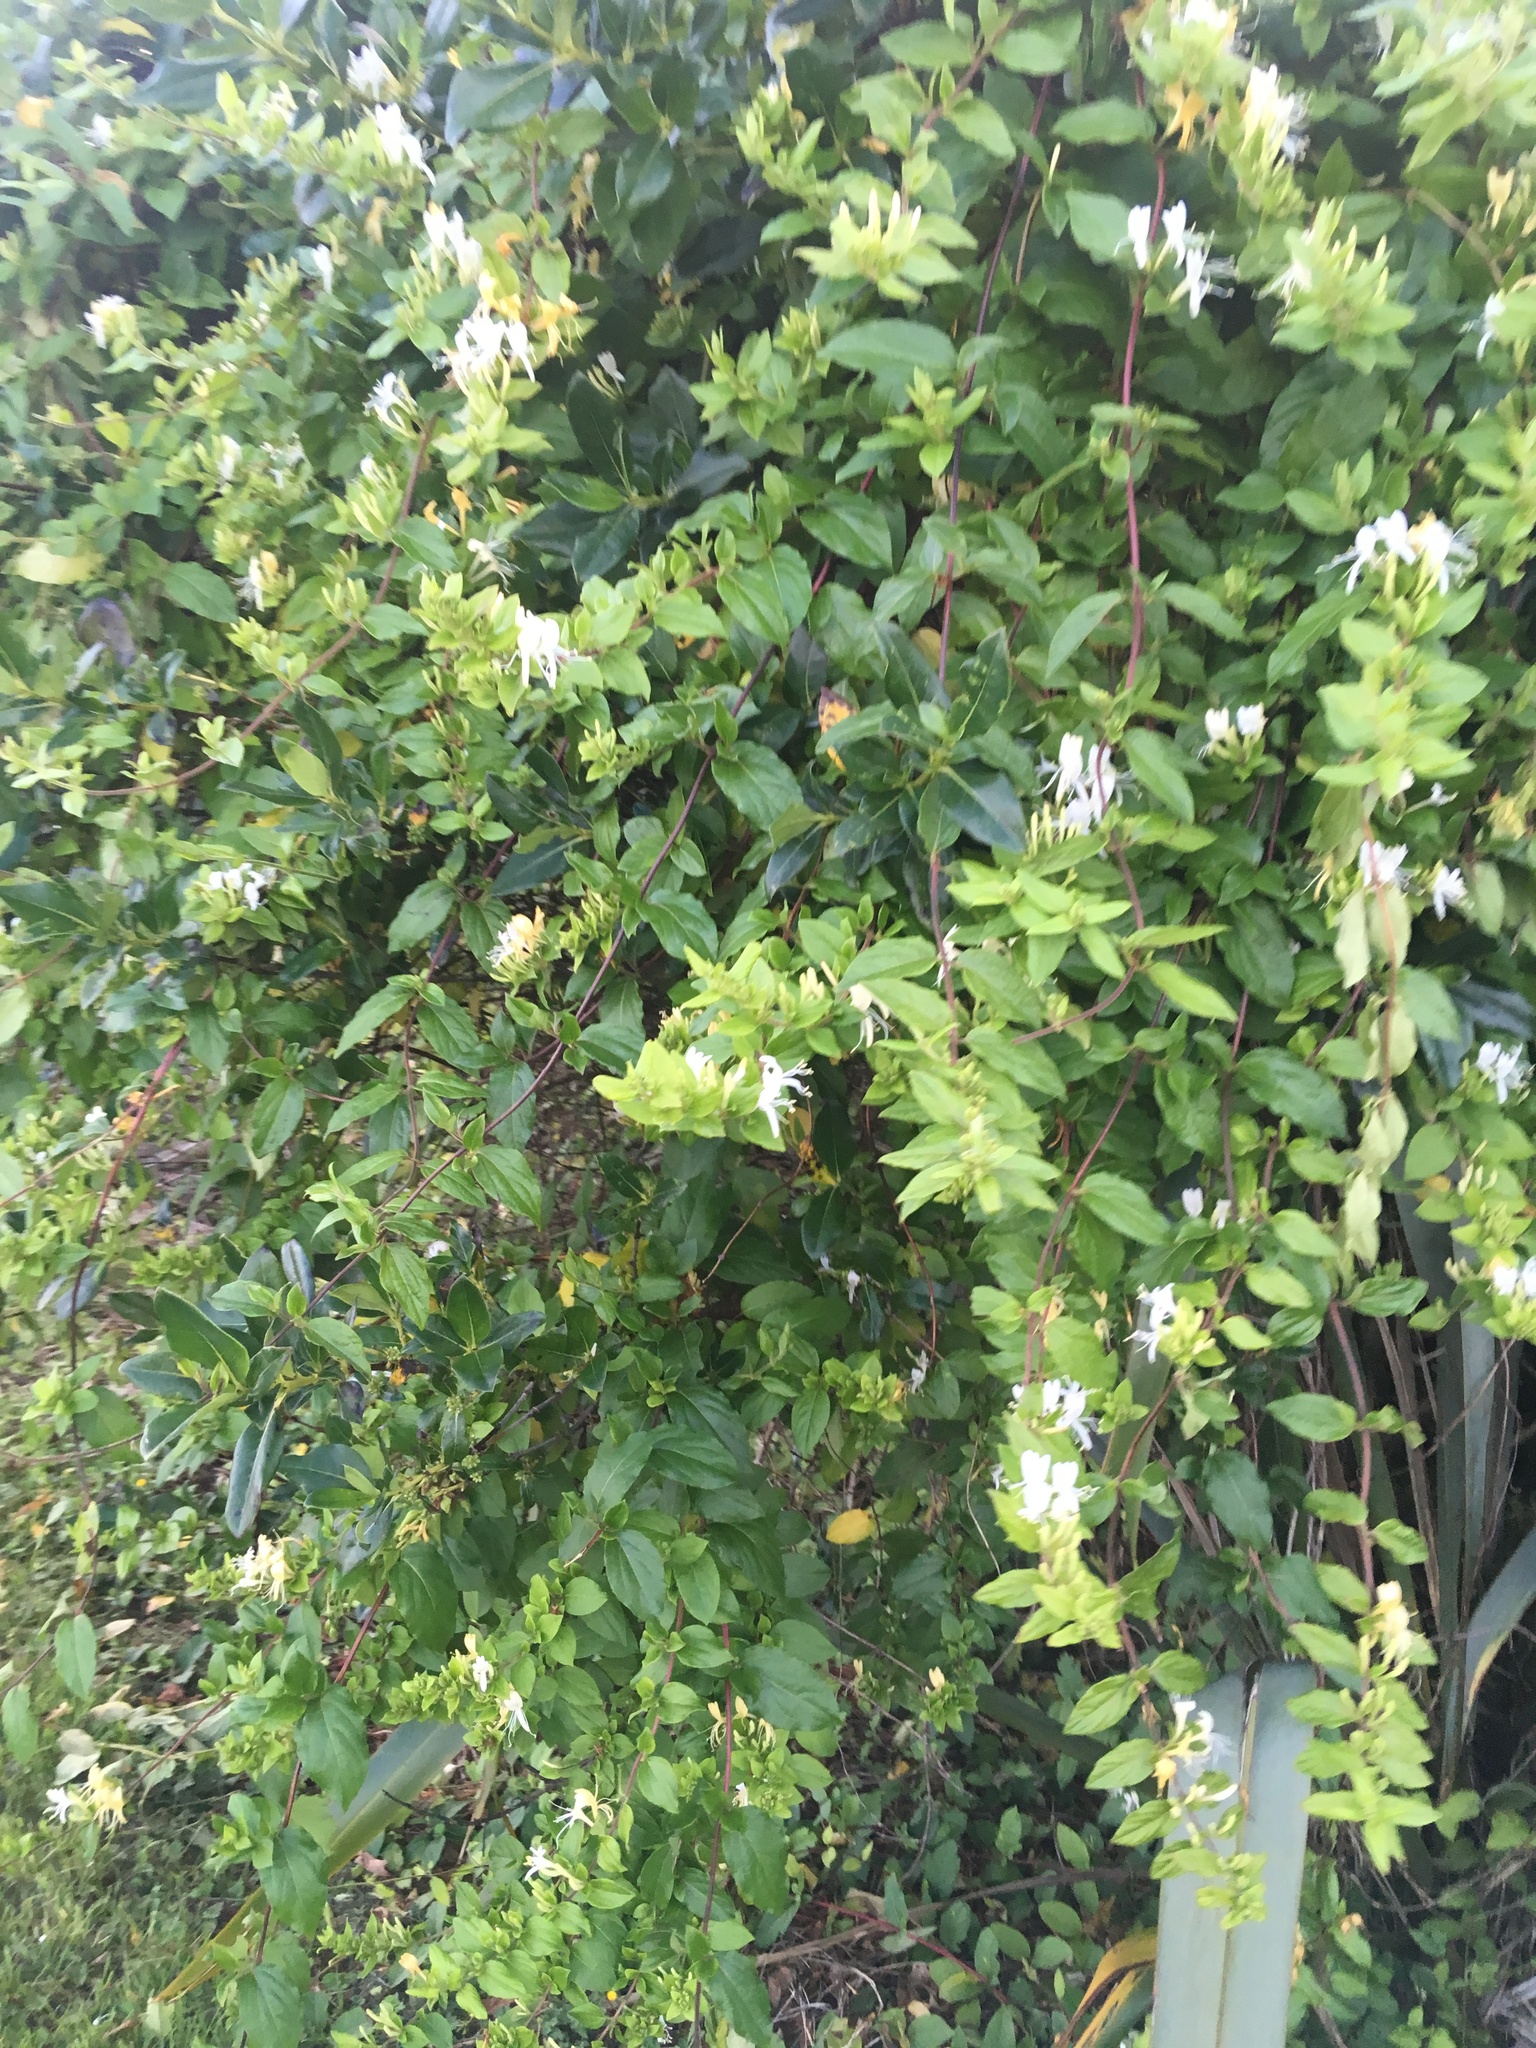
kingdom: Plantae
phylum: Tracheophyta
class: Magnoliopsida
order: Dipsacales
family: Caprifoliaceae
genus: Lonicera
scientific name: Lonicera japonica
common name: Japanese honeysuckle
